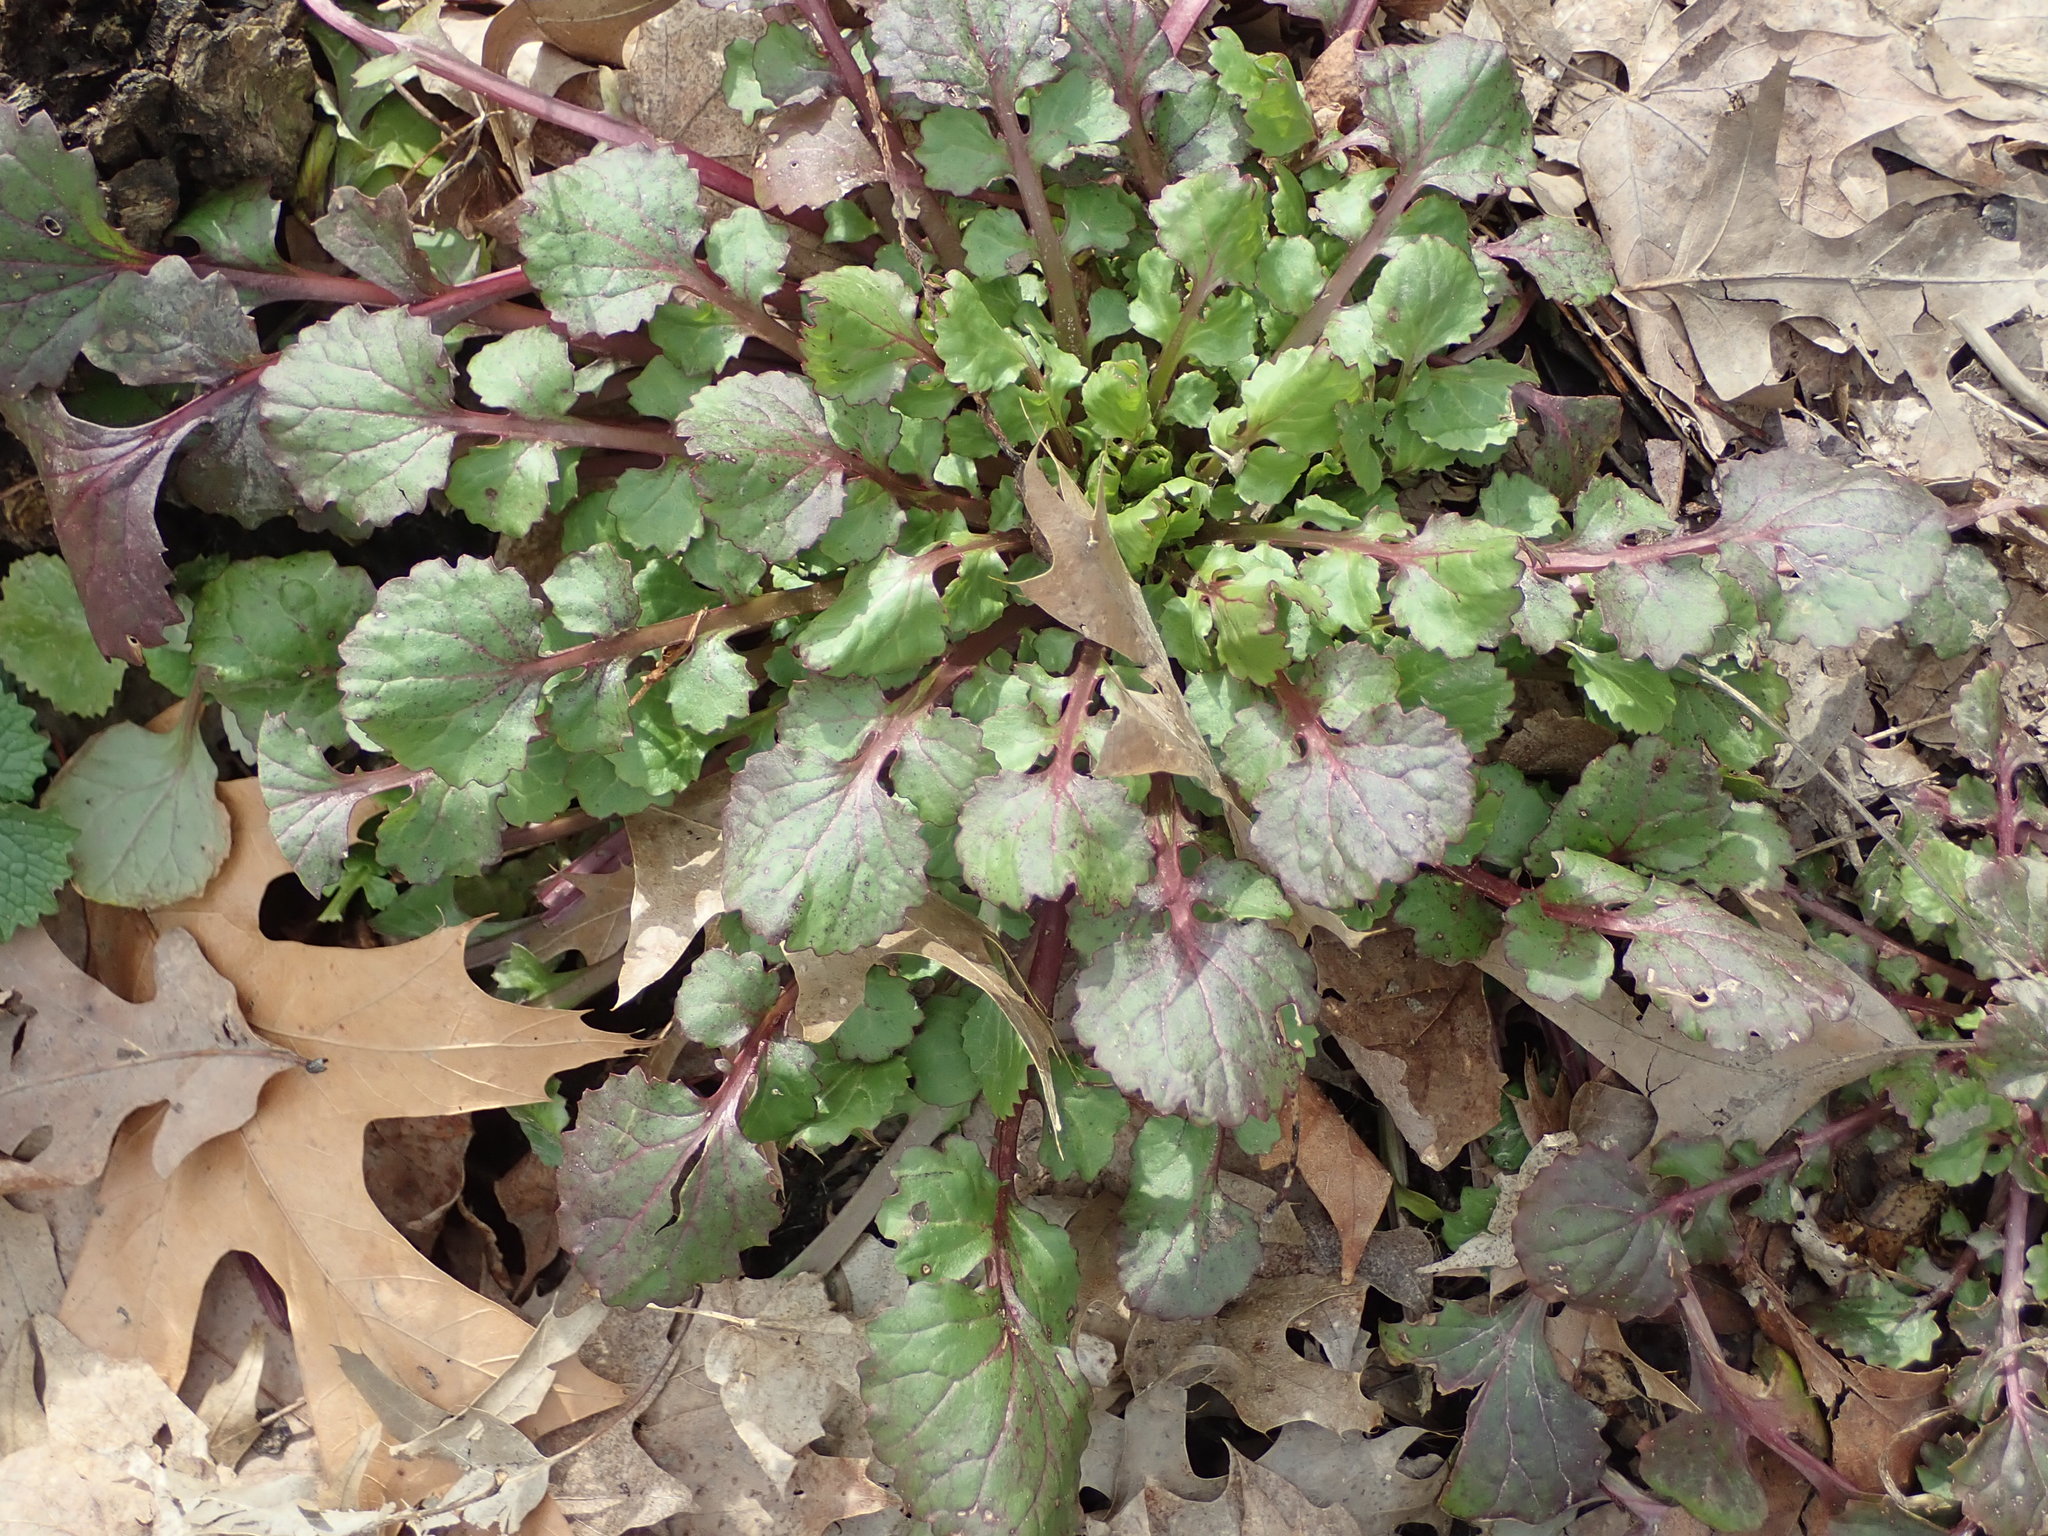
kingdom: Plantae
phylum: Tracheophyta
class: Magnoliopsida
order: Asterales
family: Asteraceae
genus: Packera
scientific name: Packera glabella
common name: Butterweed
